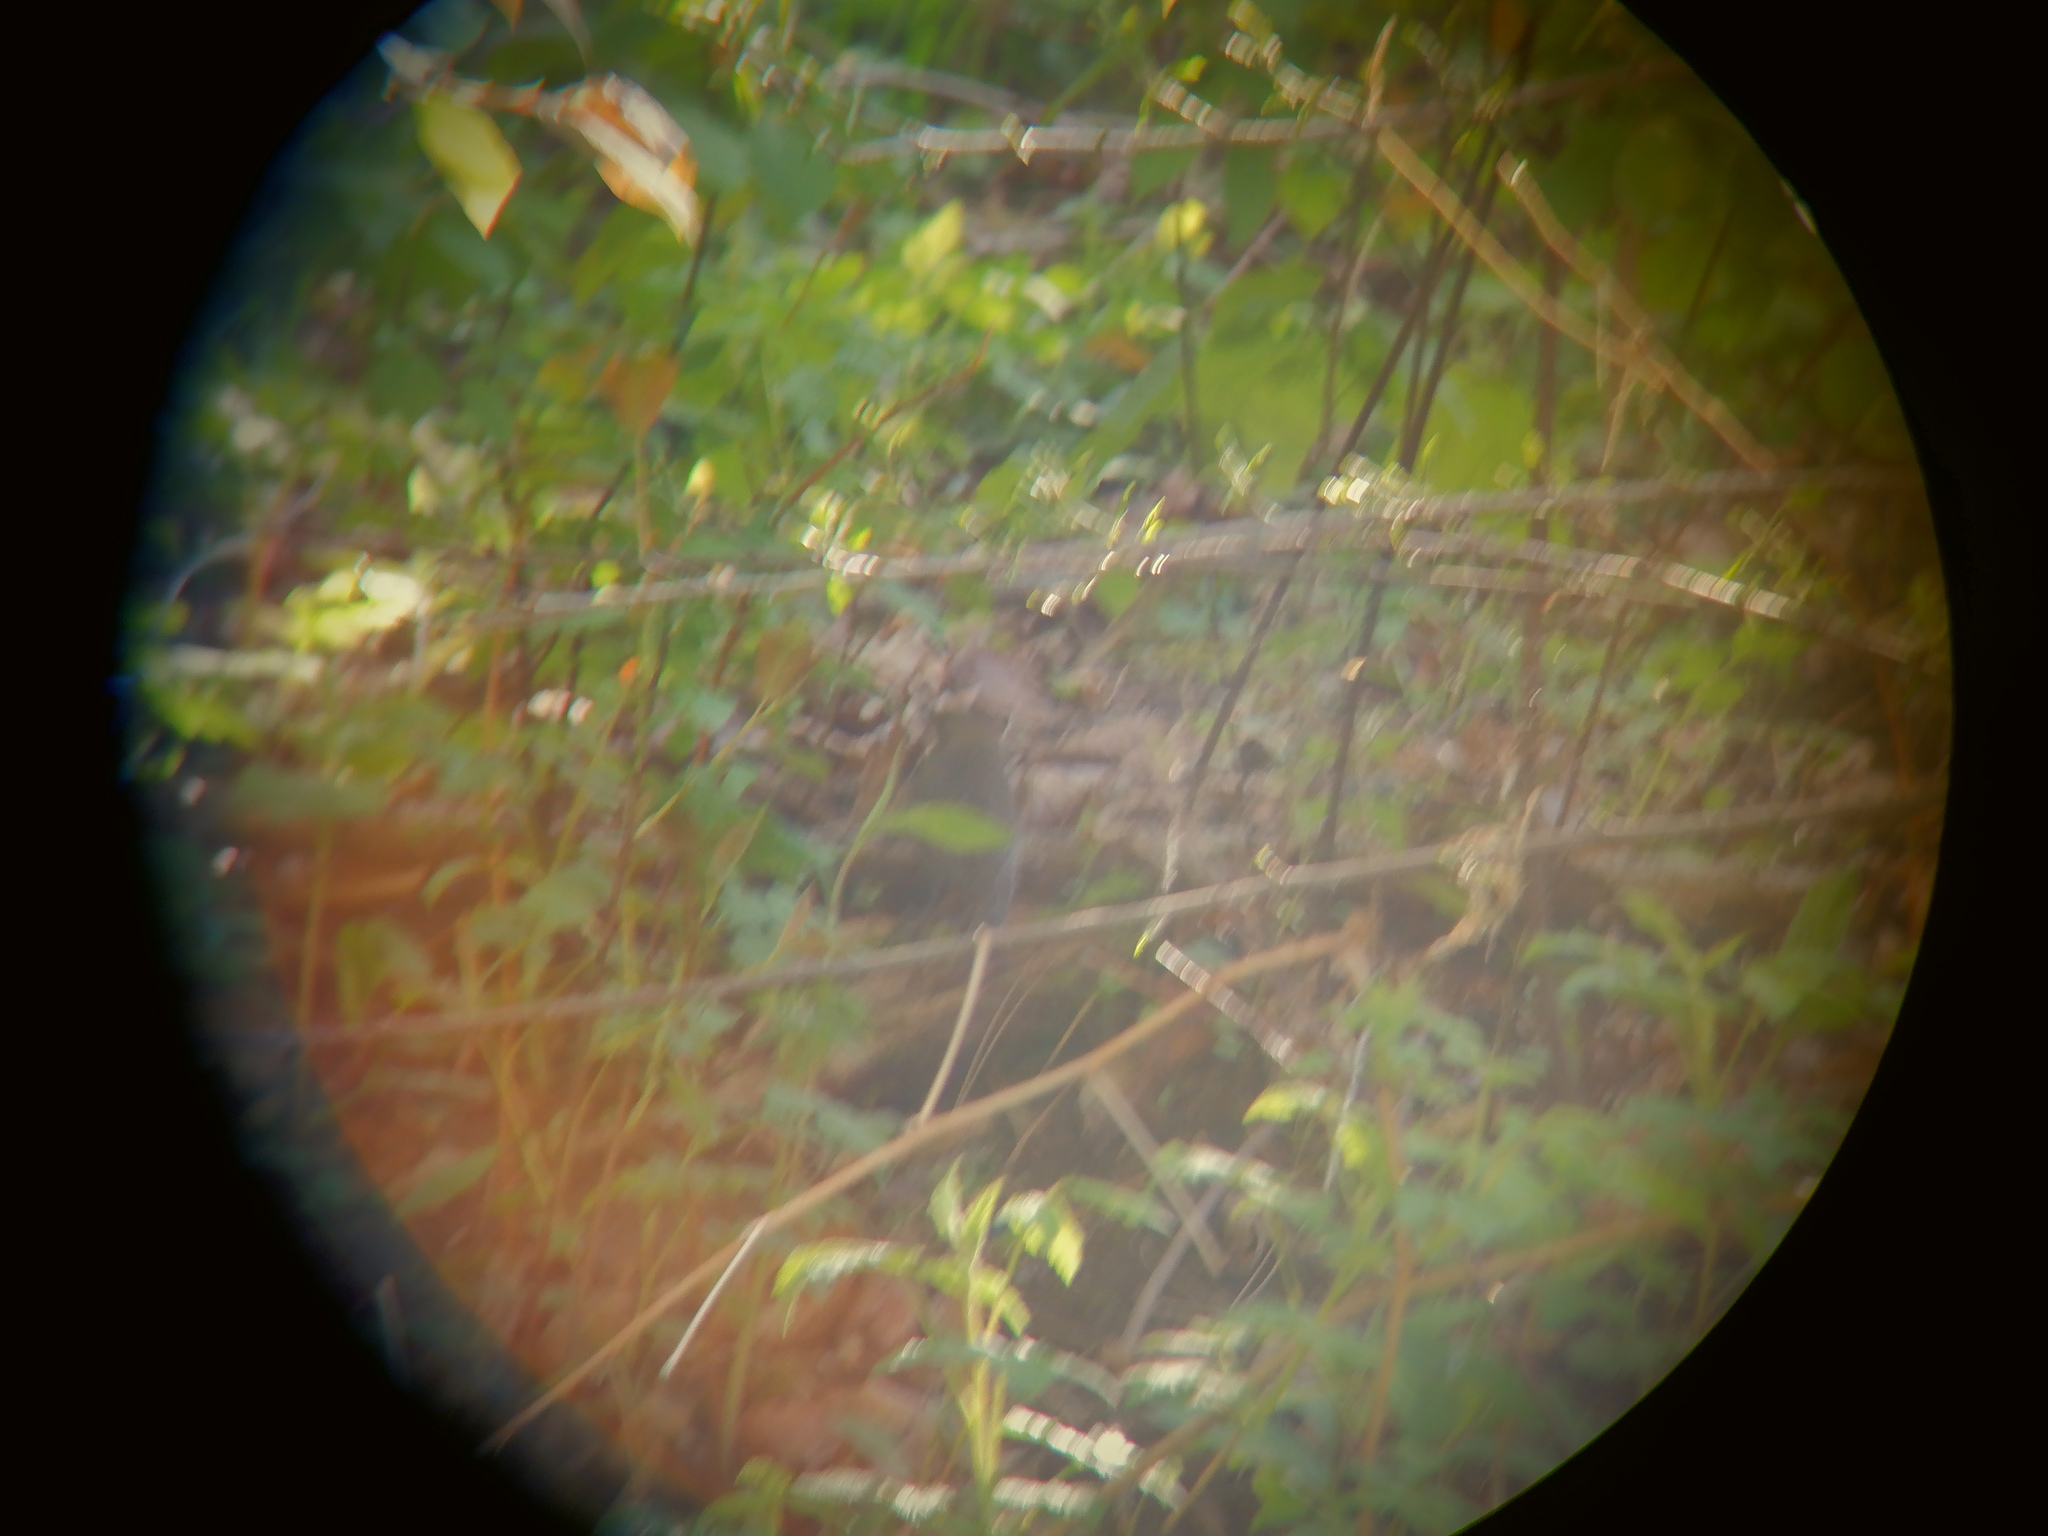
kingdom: Animalia
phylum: Chordata
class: Aves
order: Passeriformes
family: Mimidae
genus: Dumetella
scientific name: Dumetella carolinensis
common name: Gray catbird
